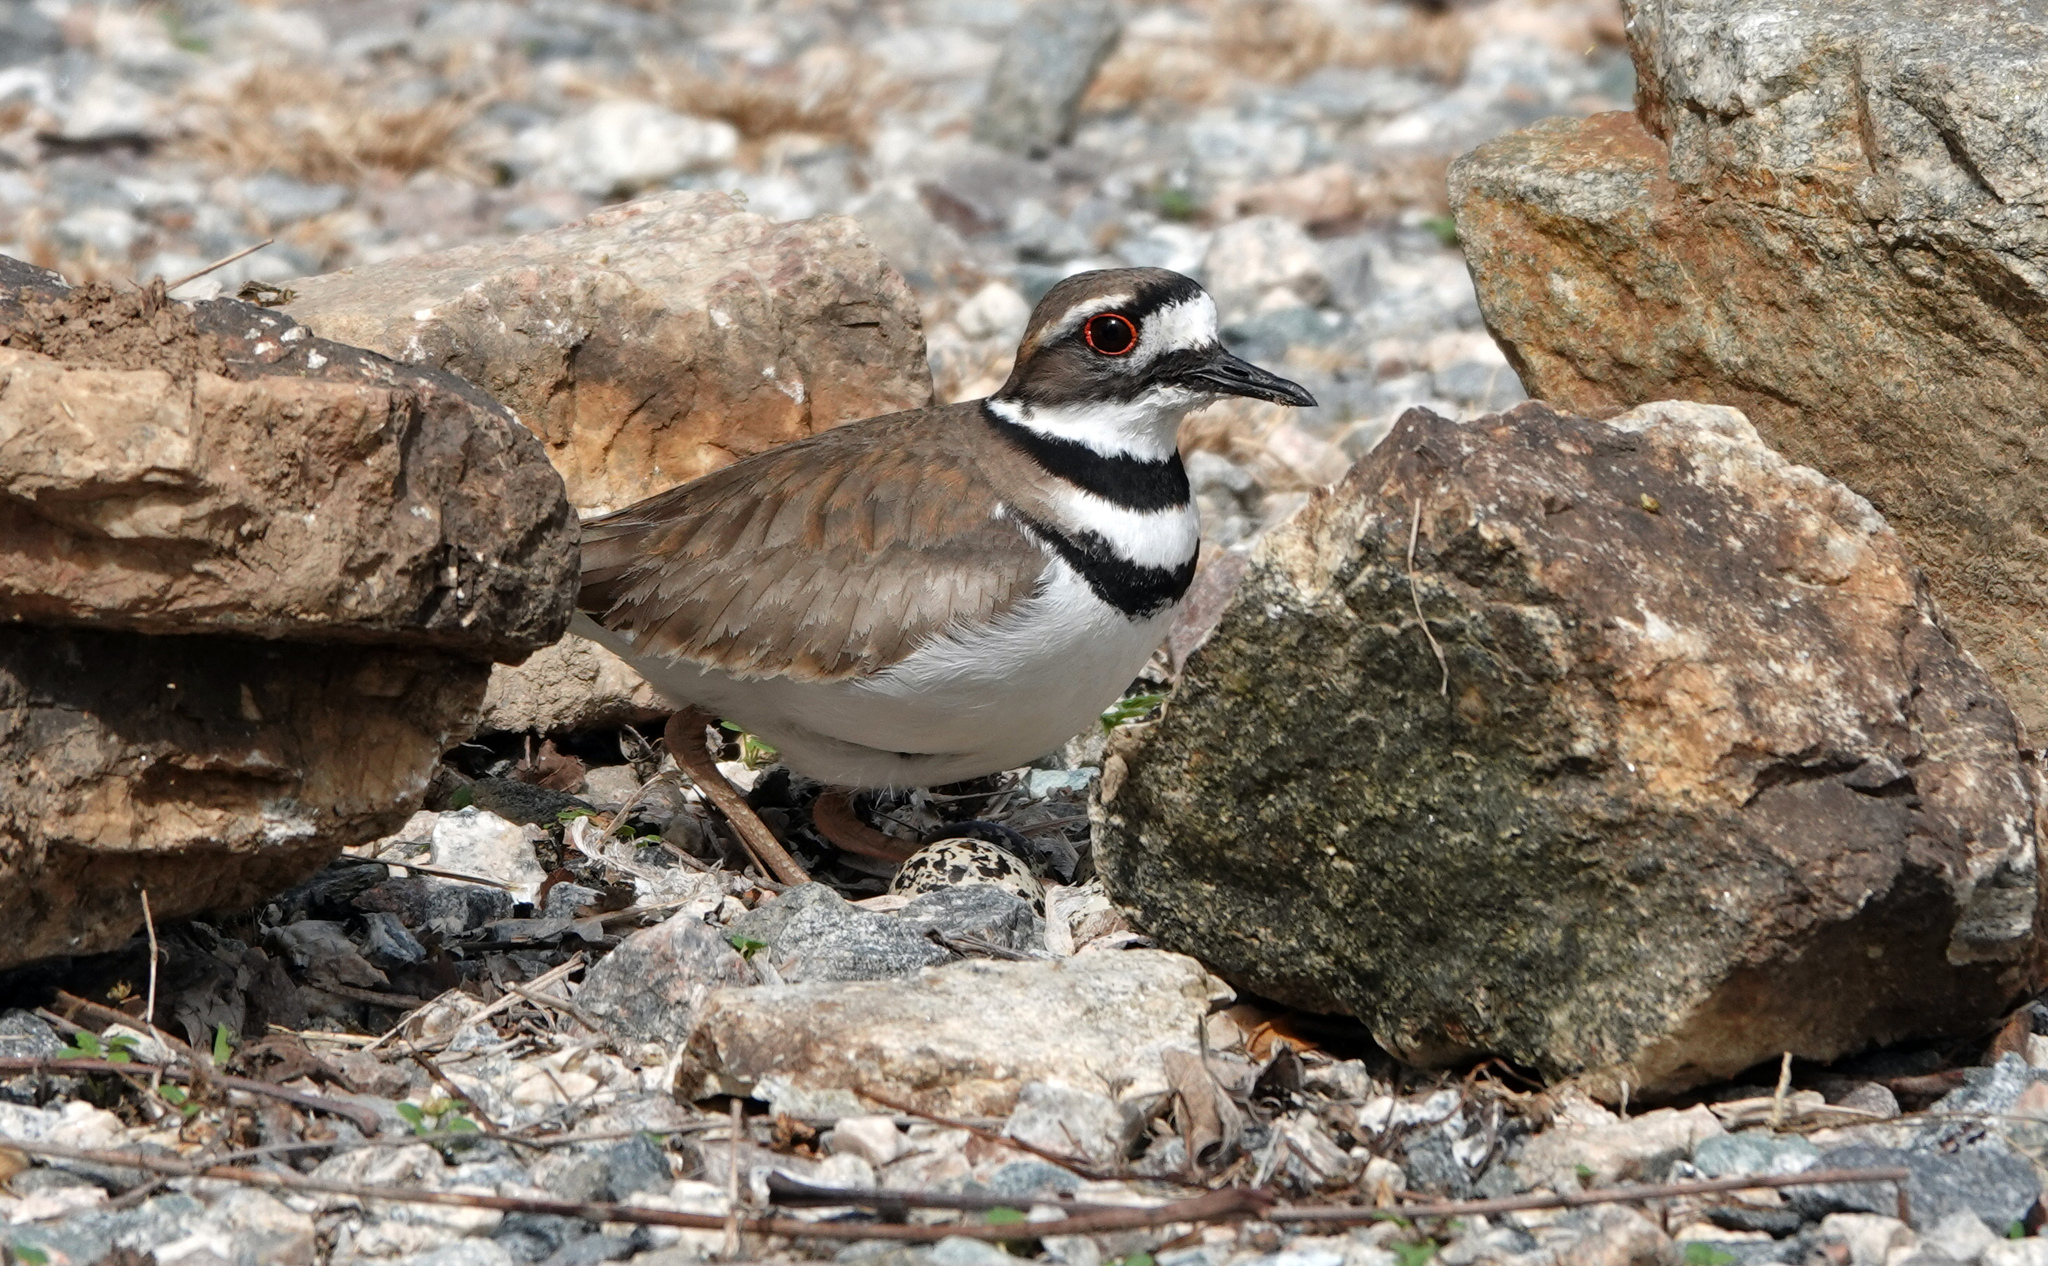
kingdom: Animalia
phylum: Chordata
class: Aves
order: Charadriiformes
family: Charadriidae
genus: Charadrius
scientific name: Charadrius vociferus
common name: Killdeer
